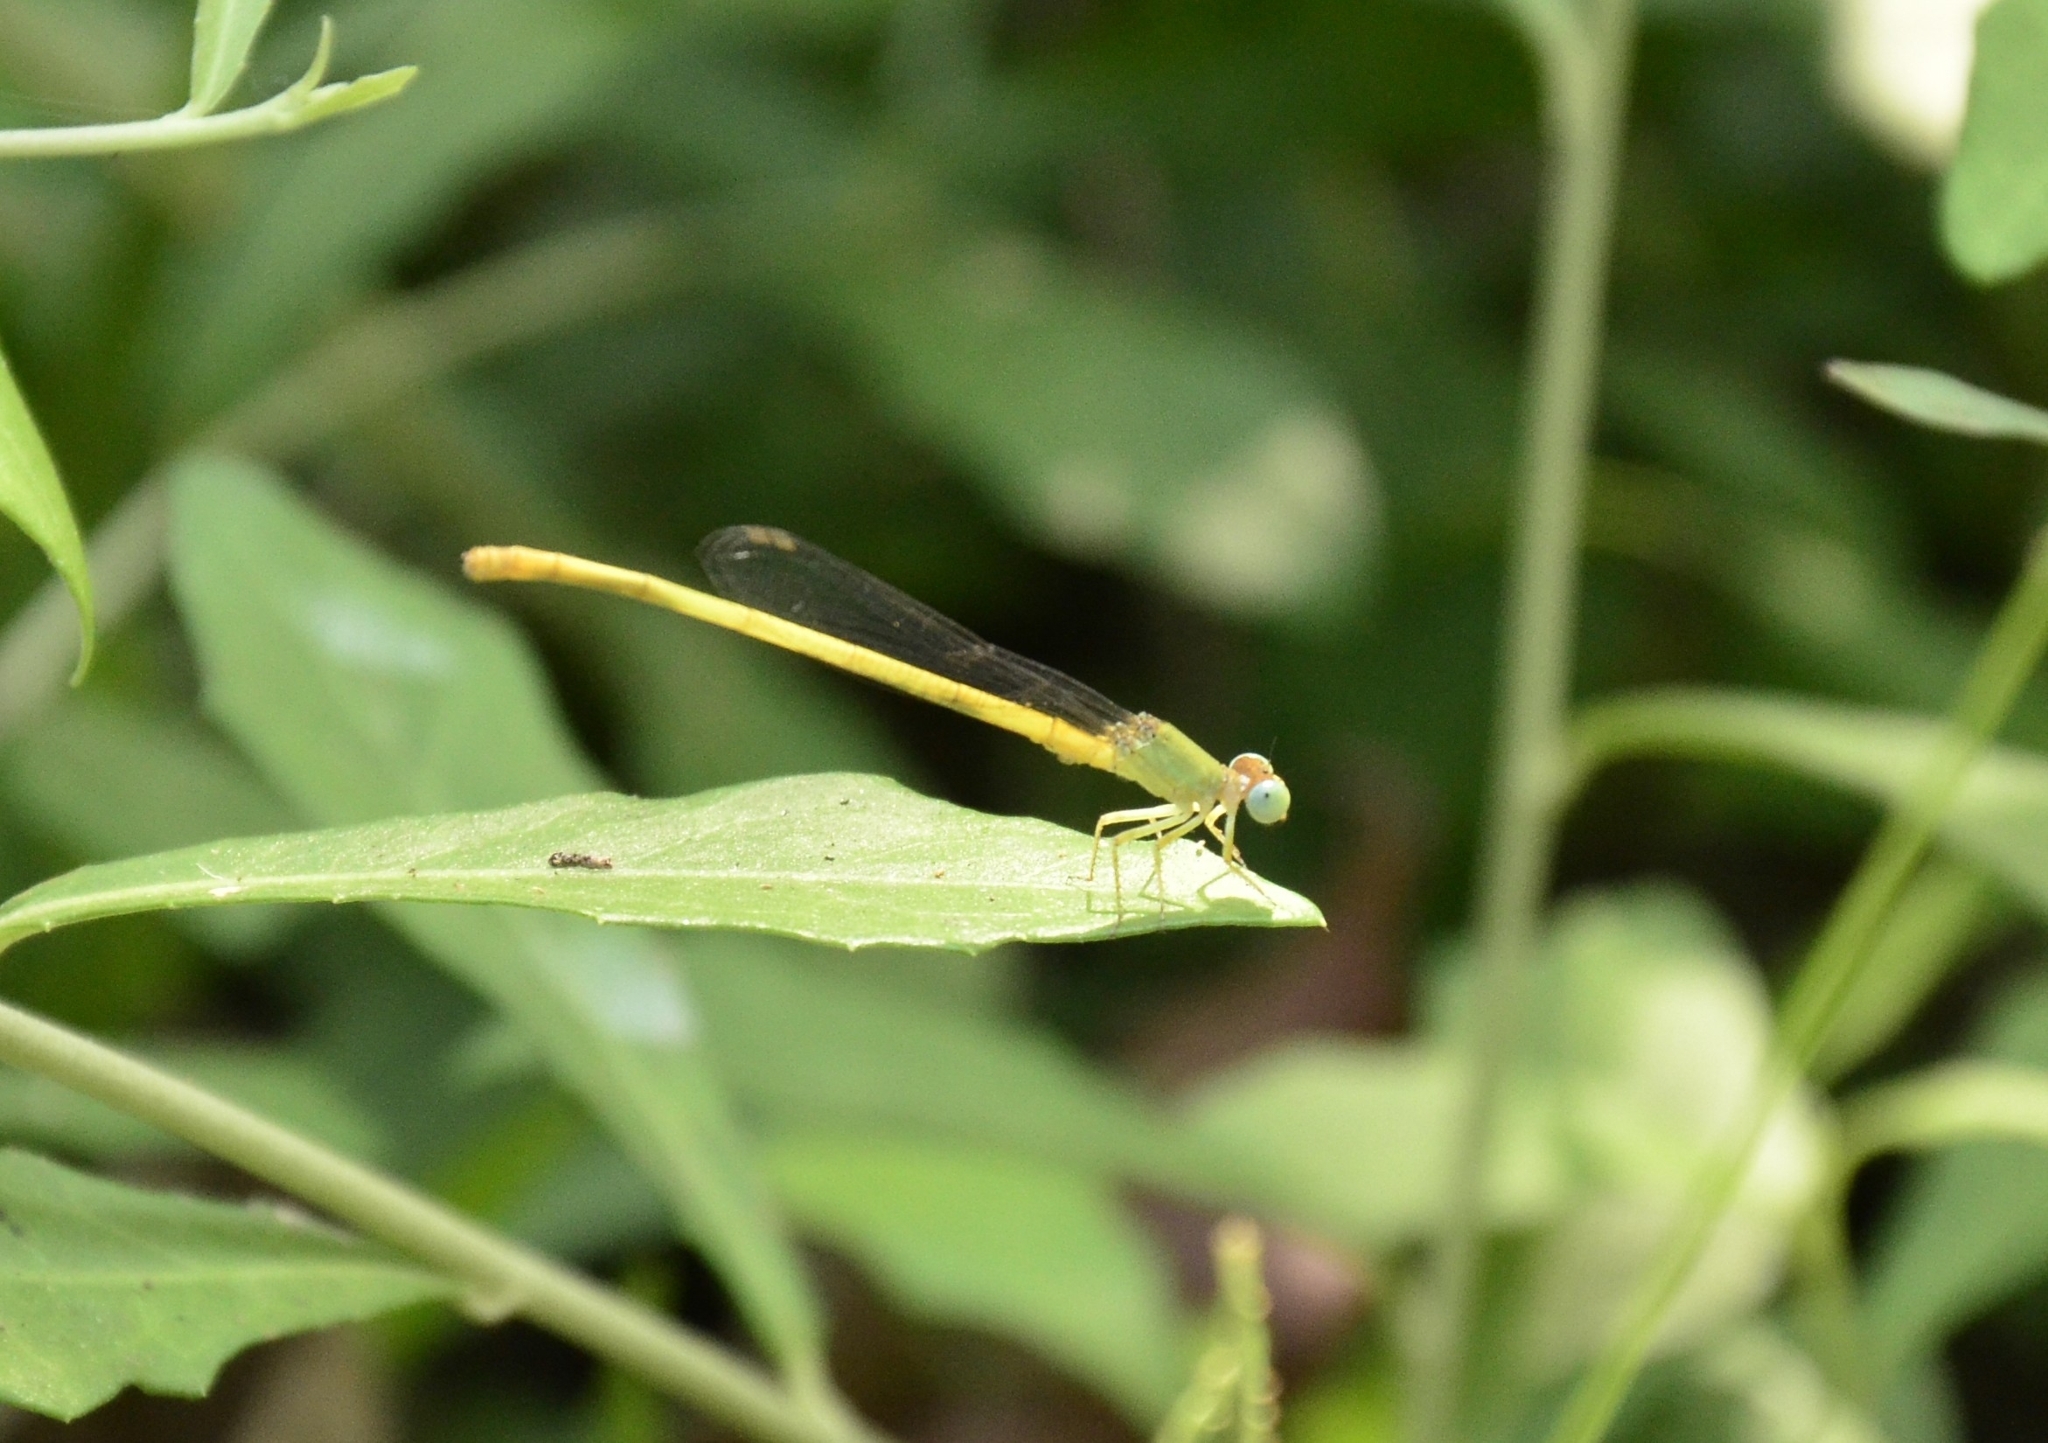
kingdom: Animalia
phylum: Arthropoda
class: Insecta
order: Odonata
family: Coenagrionidae
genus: Ceriagrion
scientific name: Ceriagrion coromandelianum
